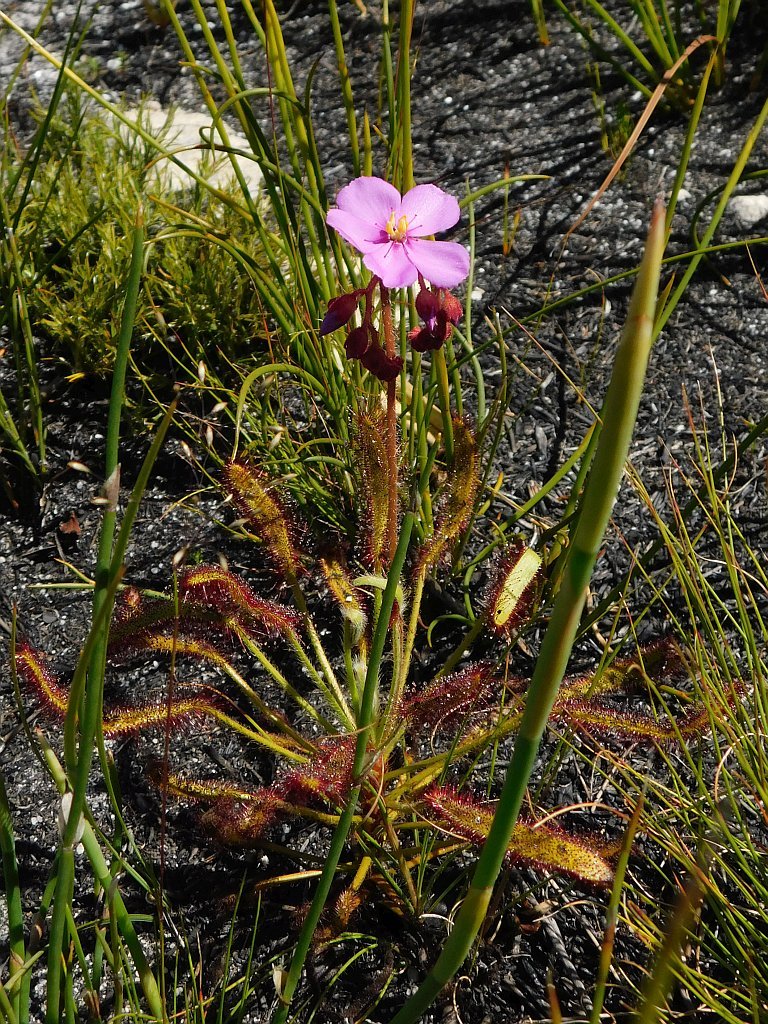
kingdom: Plantae
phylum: Tracheophyta
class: Magnoliopsida
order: Caryophyllales
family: Droseraceae
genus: Drosera
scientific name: Drosera ramentacea
